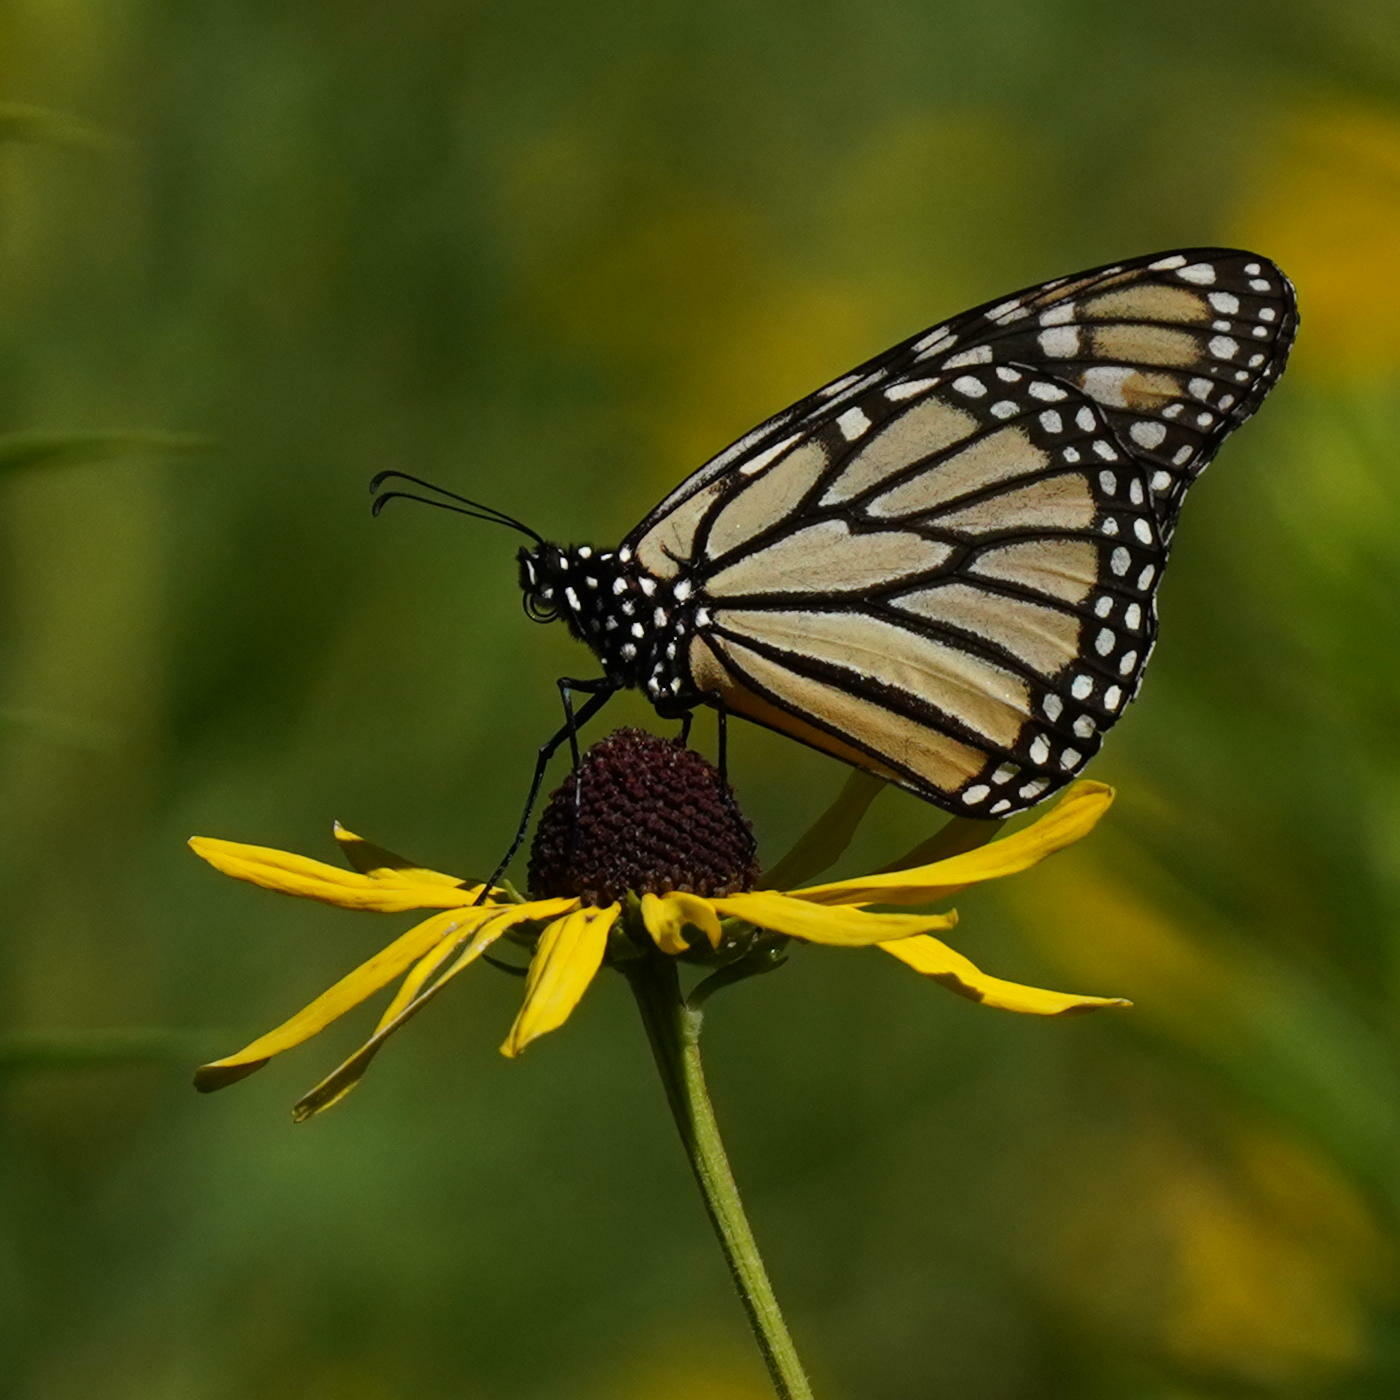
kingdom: Animalia
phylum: Arthropoda
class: Insecta
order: Lepidoptera
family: Nymphalidae
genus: Danaus
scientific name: Danaus plexippus
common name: Monarch
